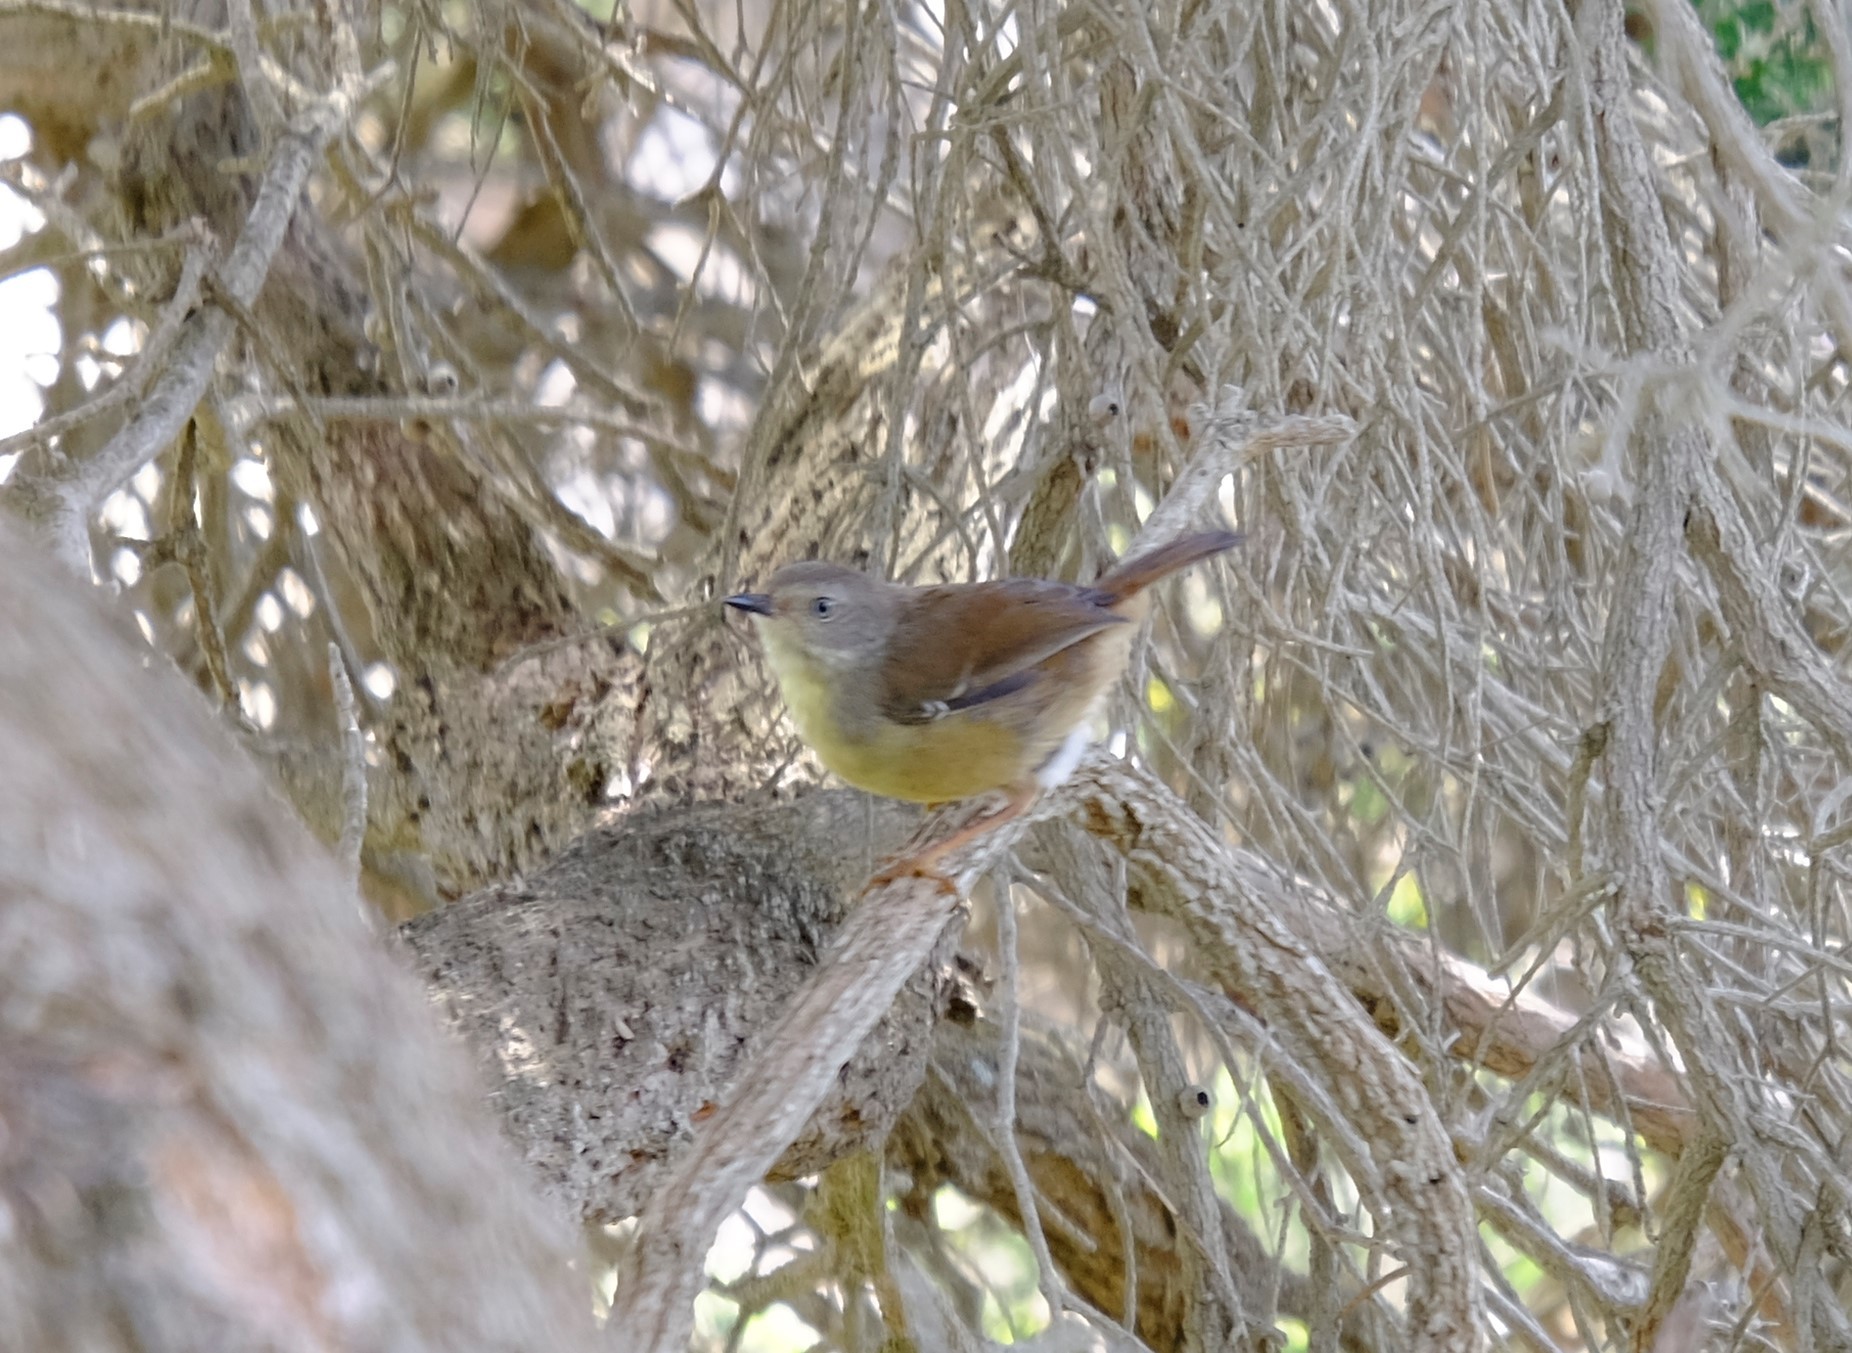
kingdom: Animalia
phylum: Chordata
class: Aves
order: Passeriformes
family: Acanthizidae
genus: Sericornis
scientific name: Sericornis frontalis
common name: White-browed scrubwren
